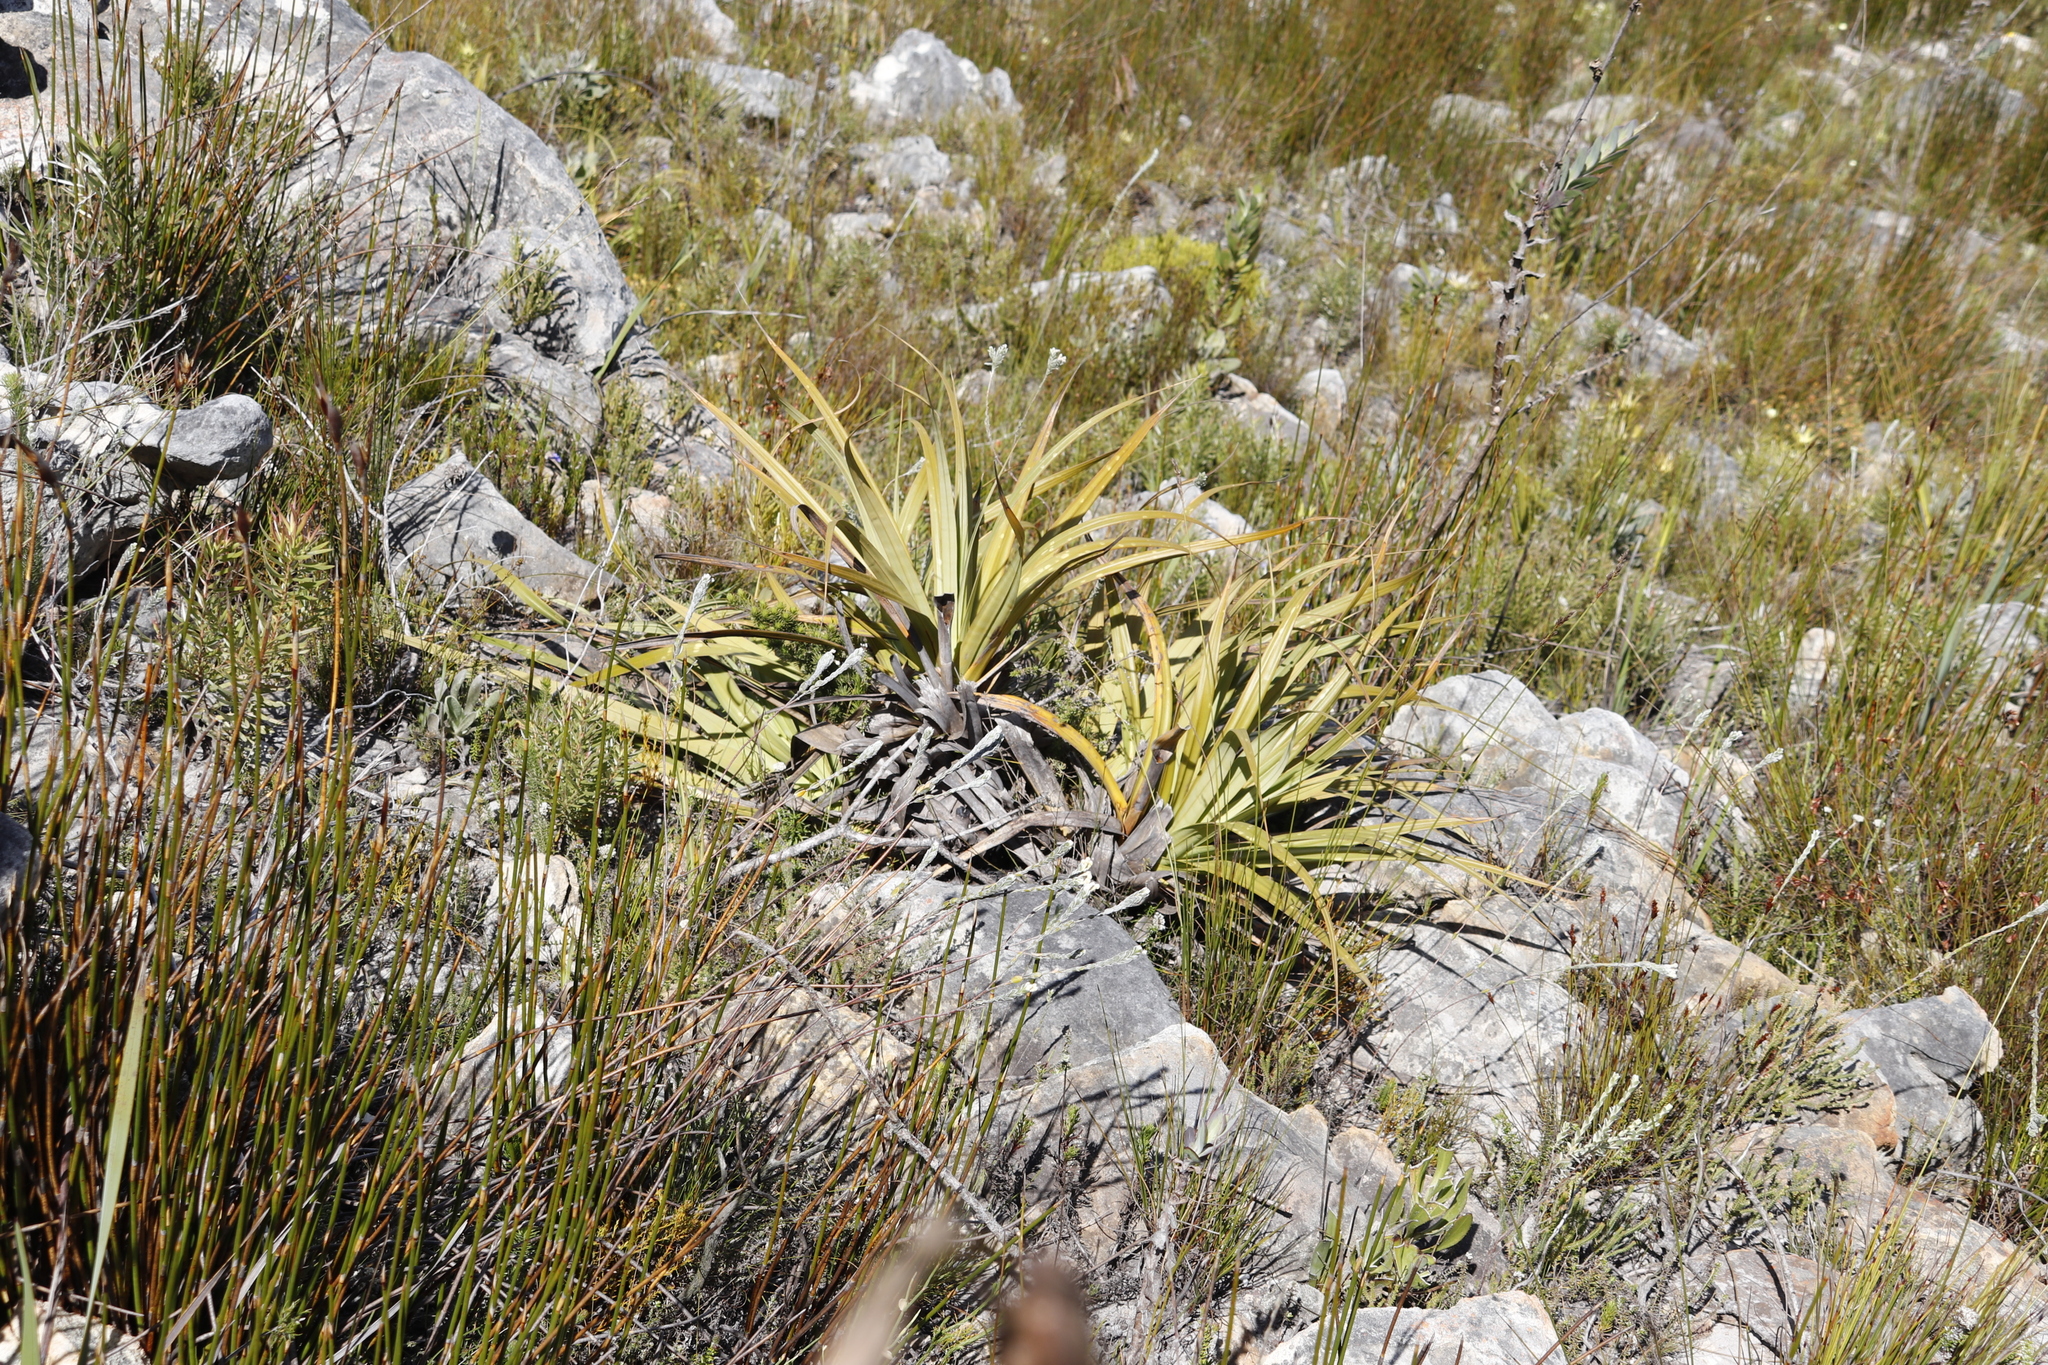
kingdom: Plantae
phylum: Tracheophyta
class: Liliopsida
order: Poales
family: Cyperaceae
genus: Tetraria
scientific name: Tetraria thermalis
